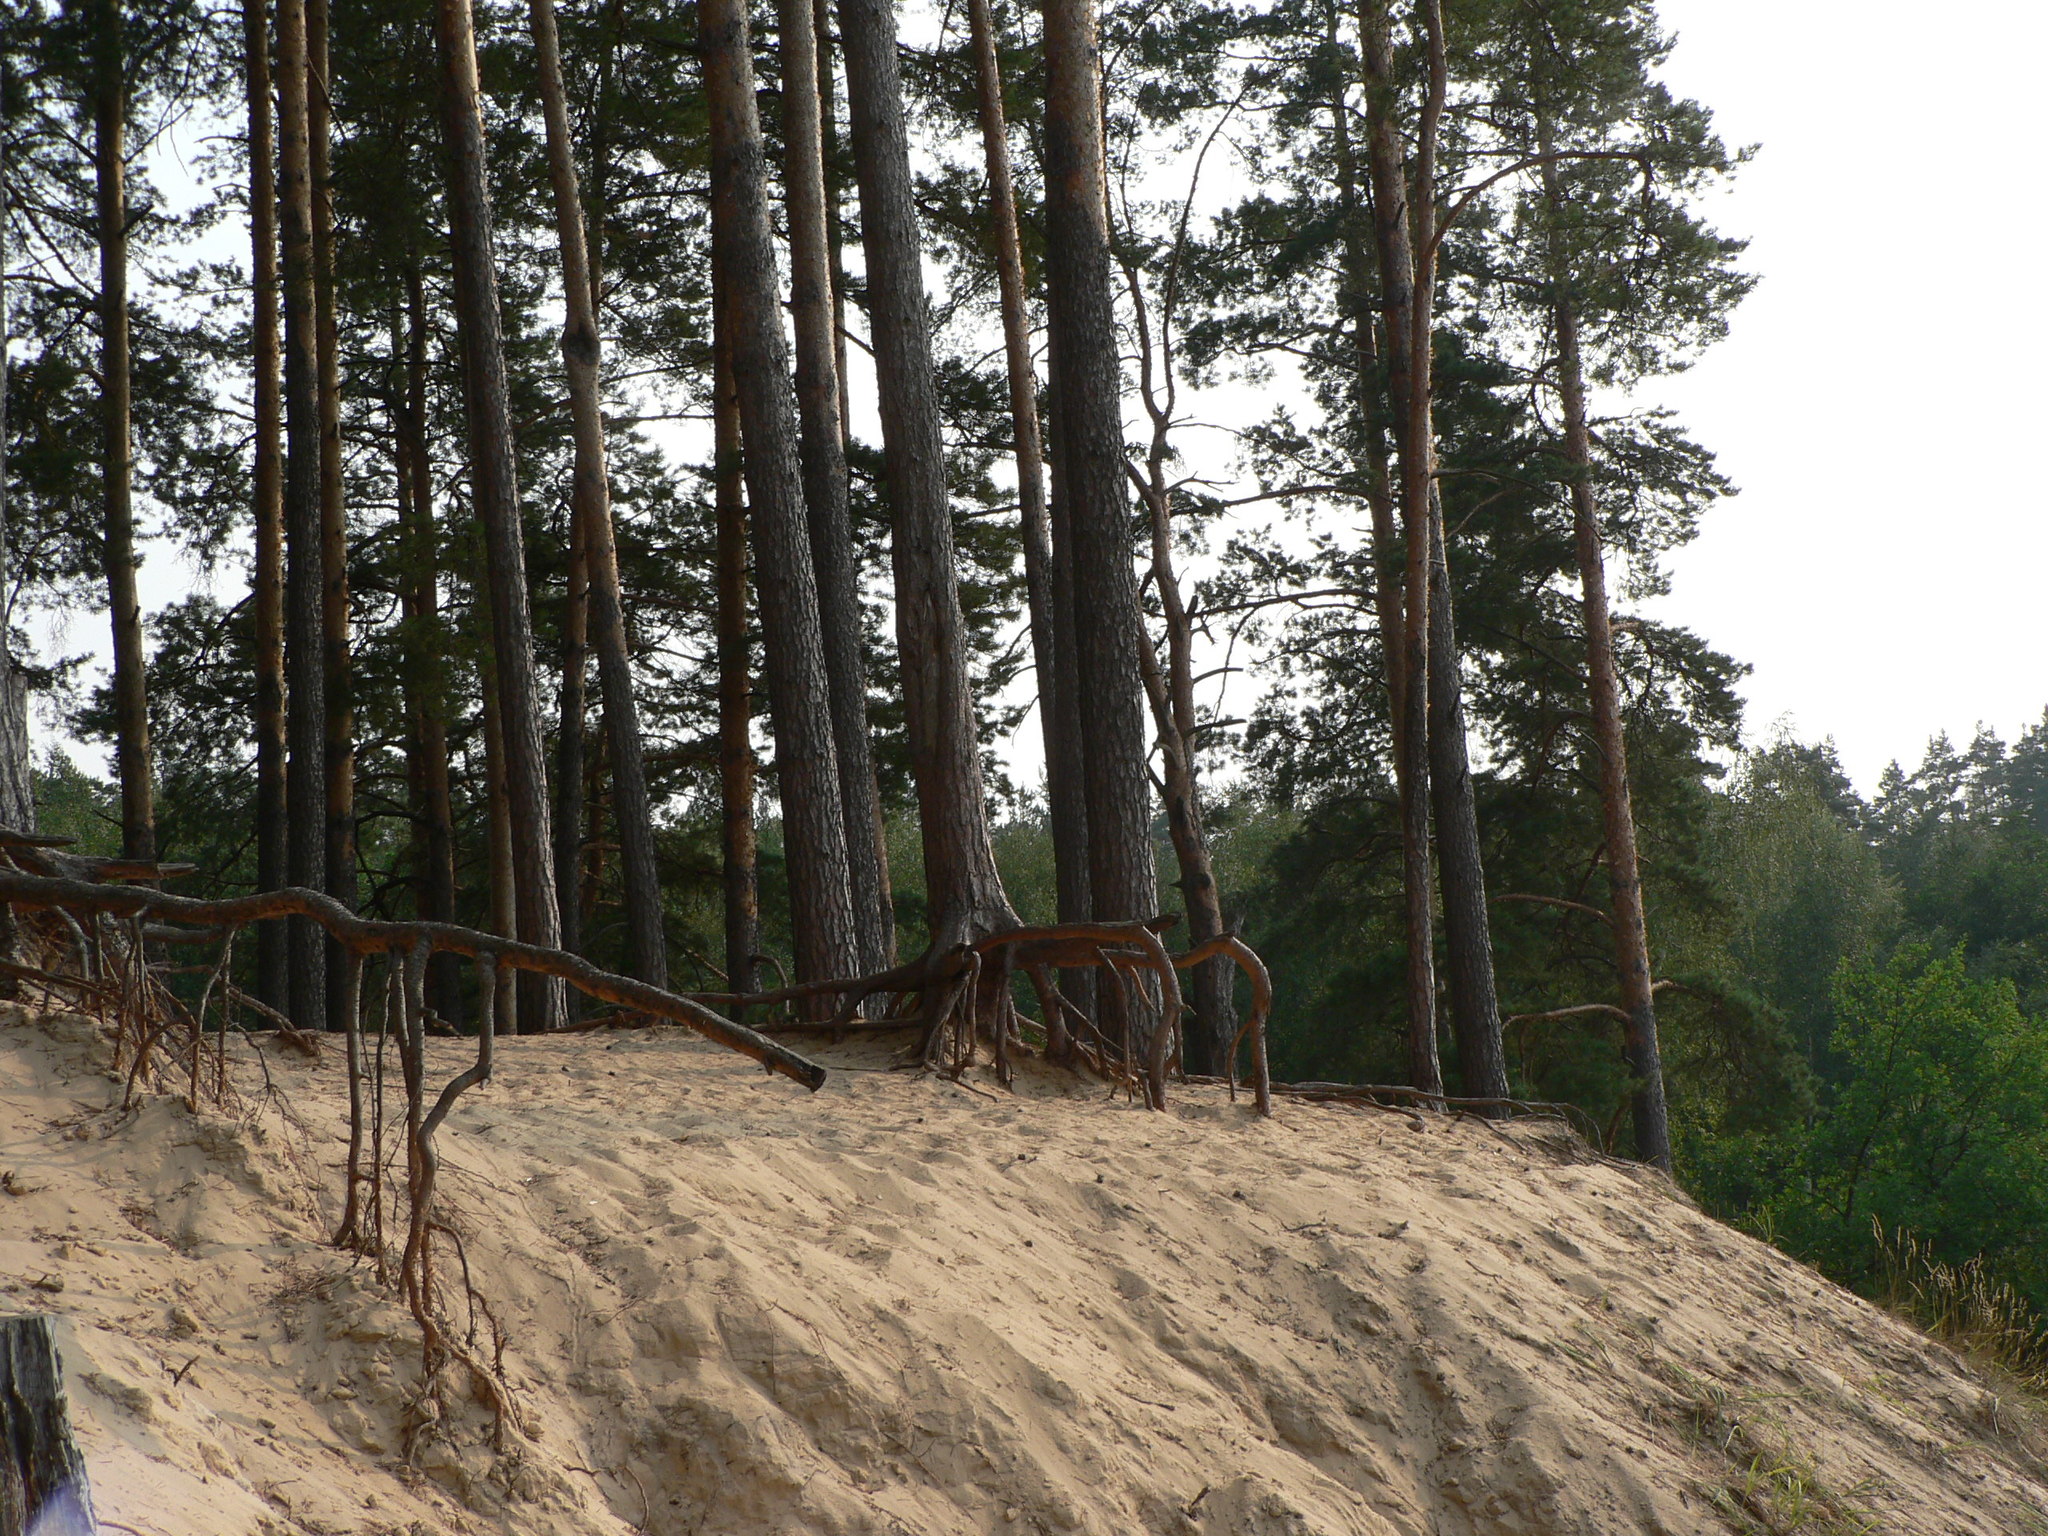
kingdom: Plantae
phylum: Tracheophyta
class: Pinopsida
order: Pinales
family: Pinaceae
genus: Pinus
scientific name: Pinus sylvestris
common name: Scots pine
